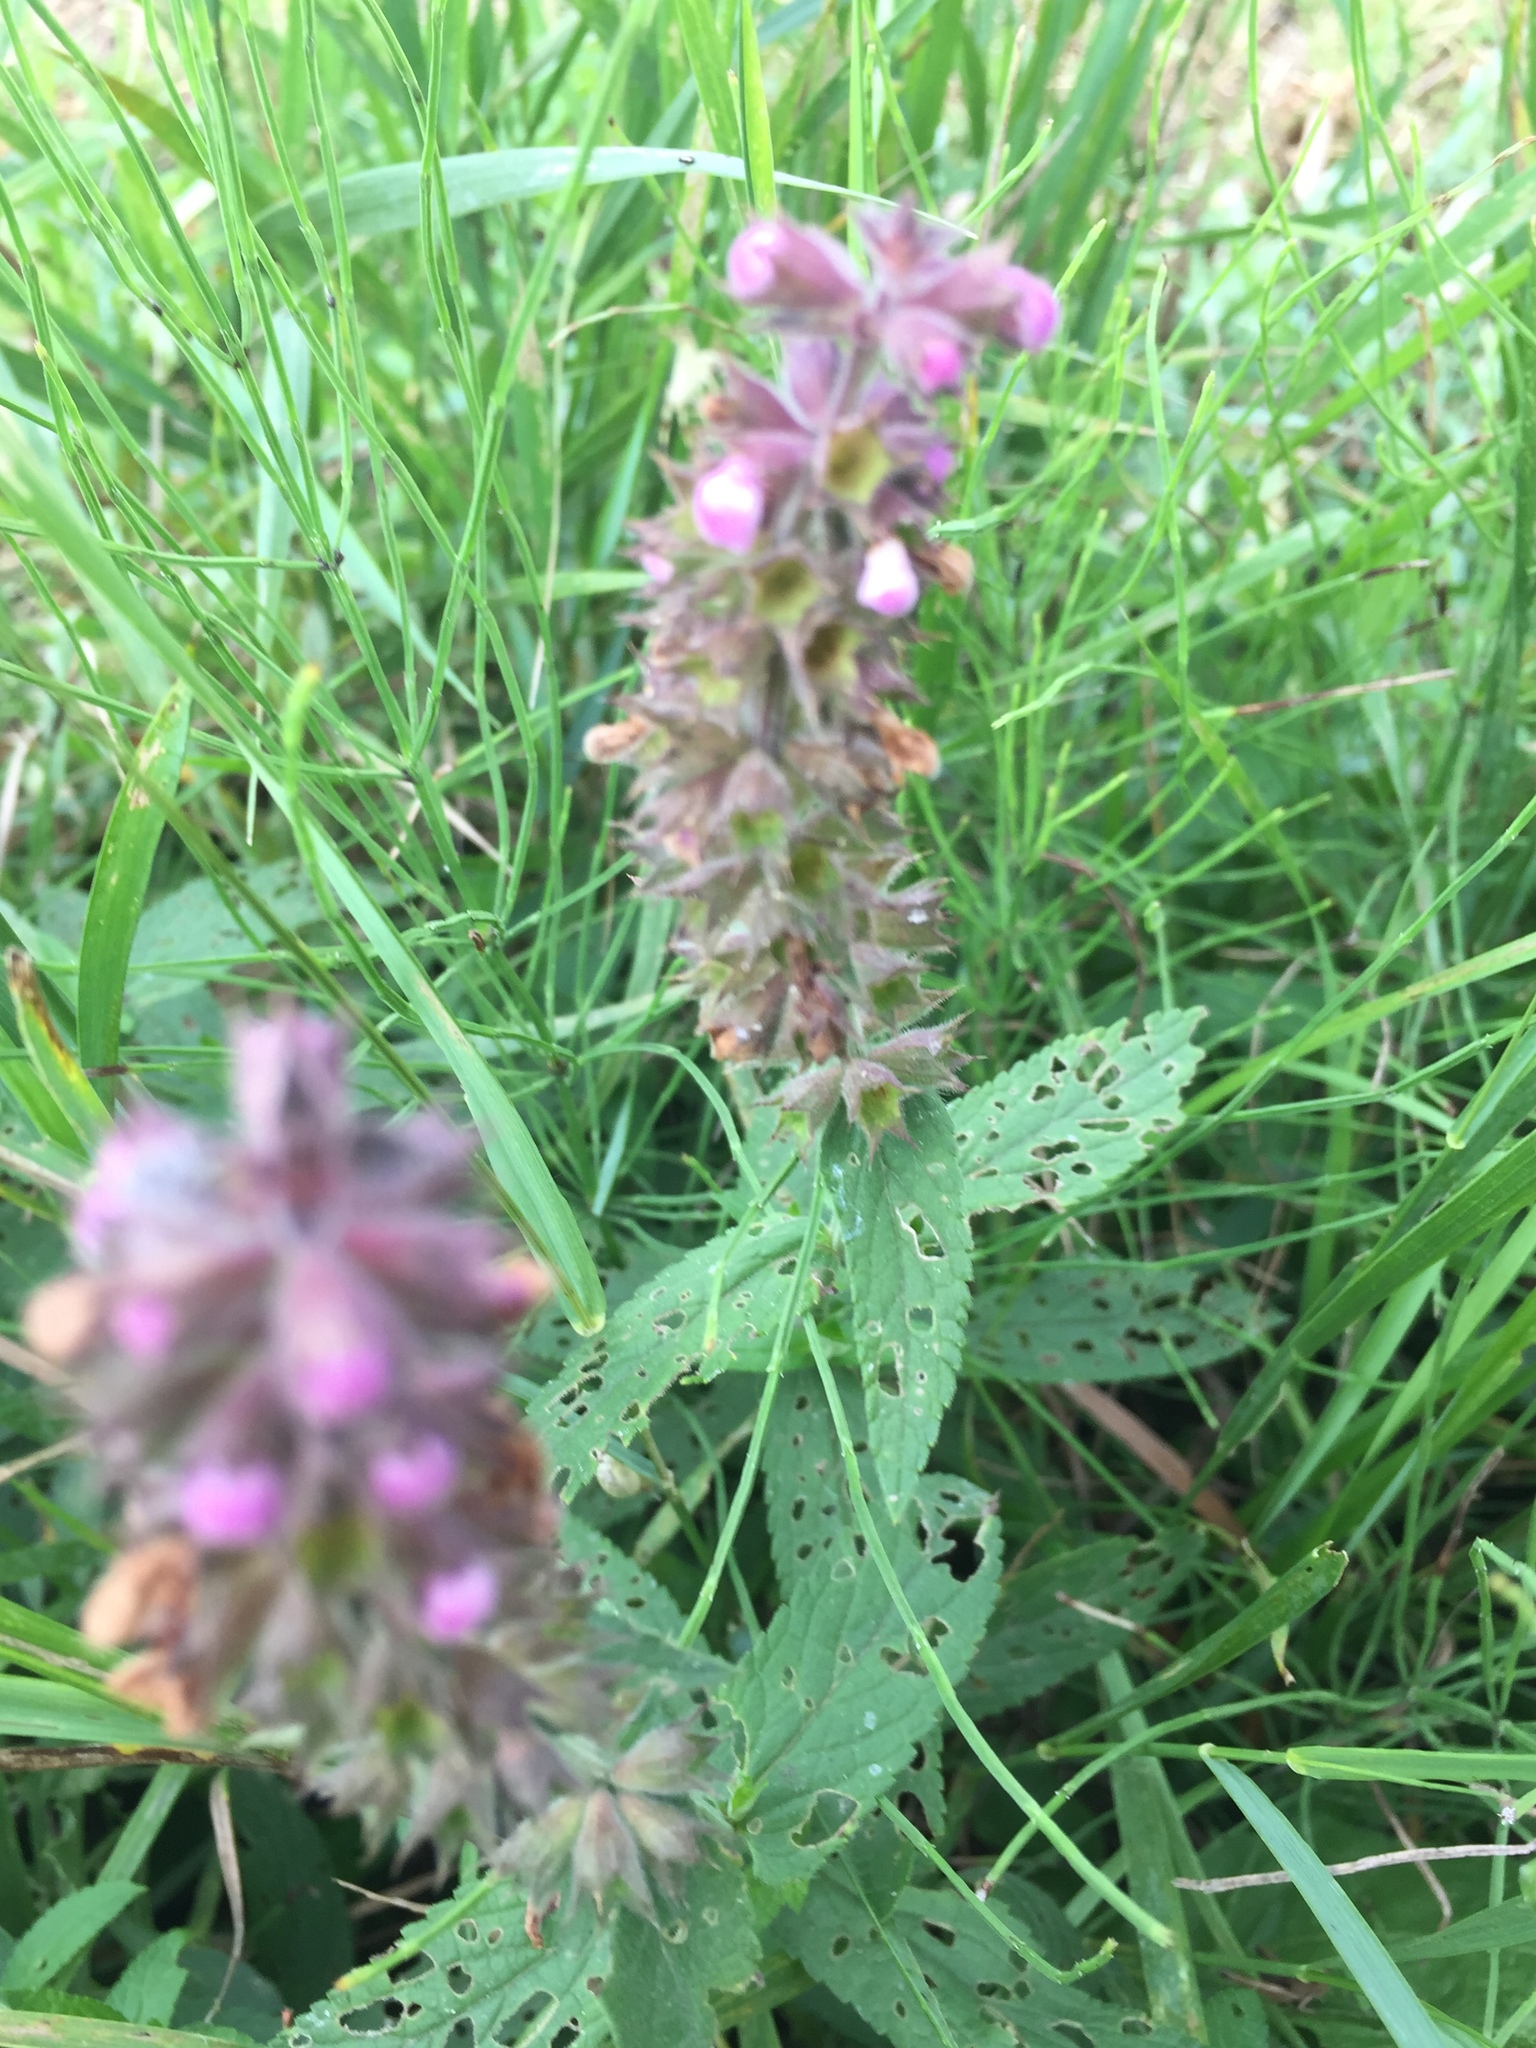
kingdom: Plantae
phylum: Tracheophyta
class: Magnoliopsida
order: Lamiales
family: Lamiaceae
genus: Stachys
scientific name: Stachys palustris
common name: Marsh woundwort
